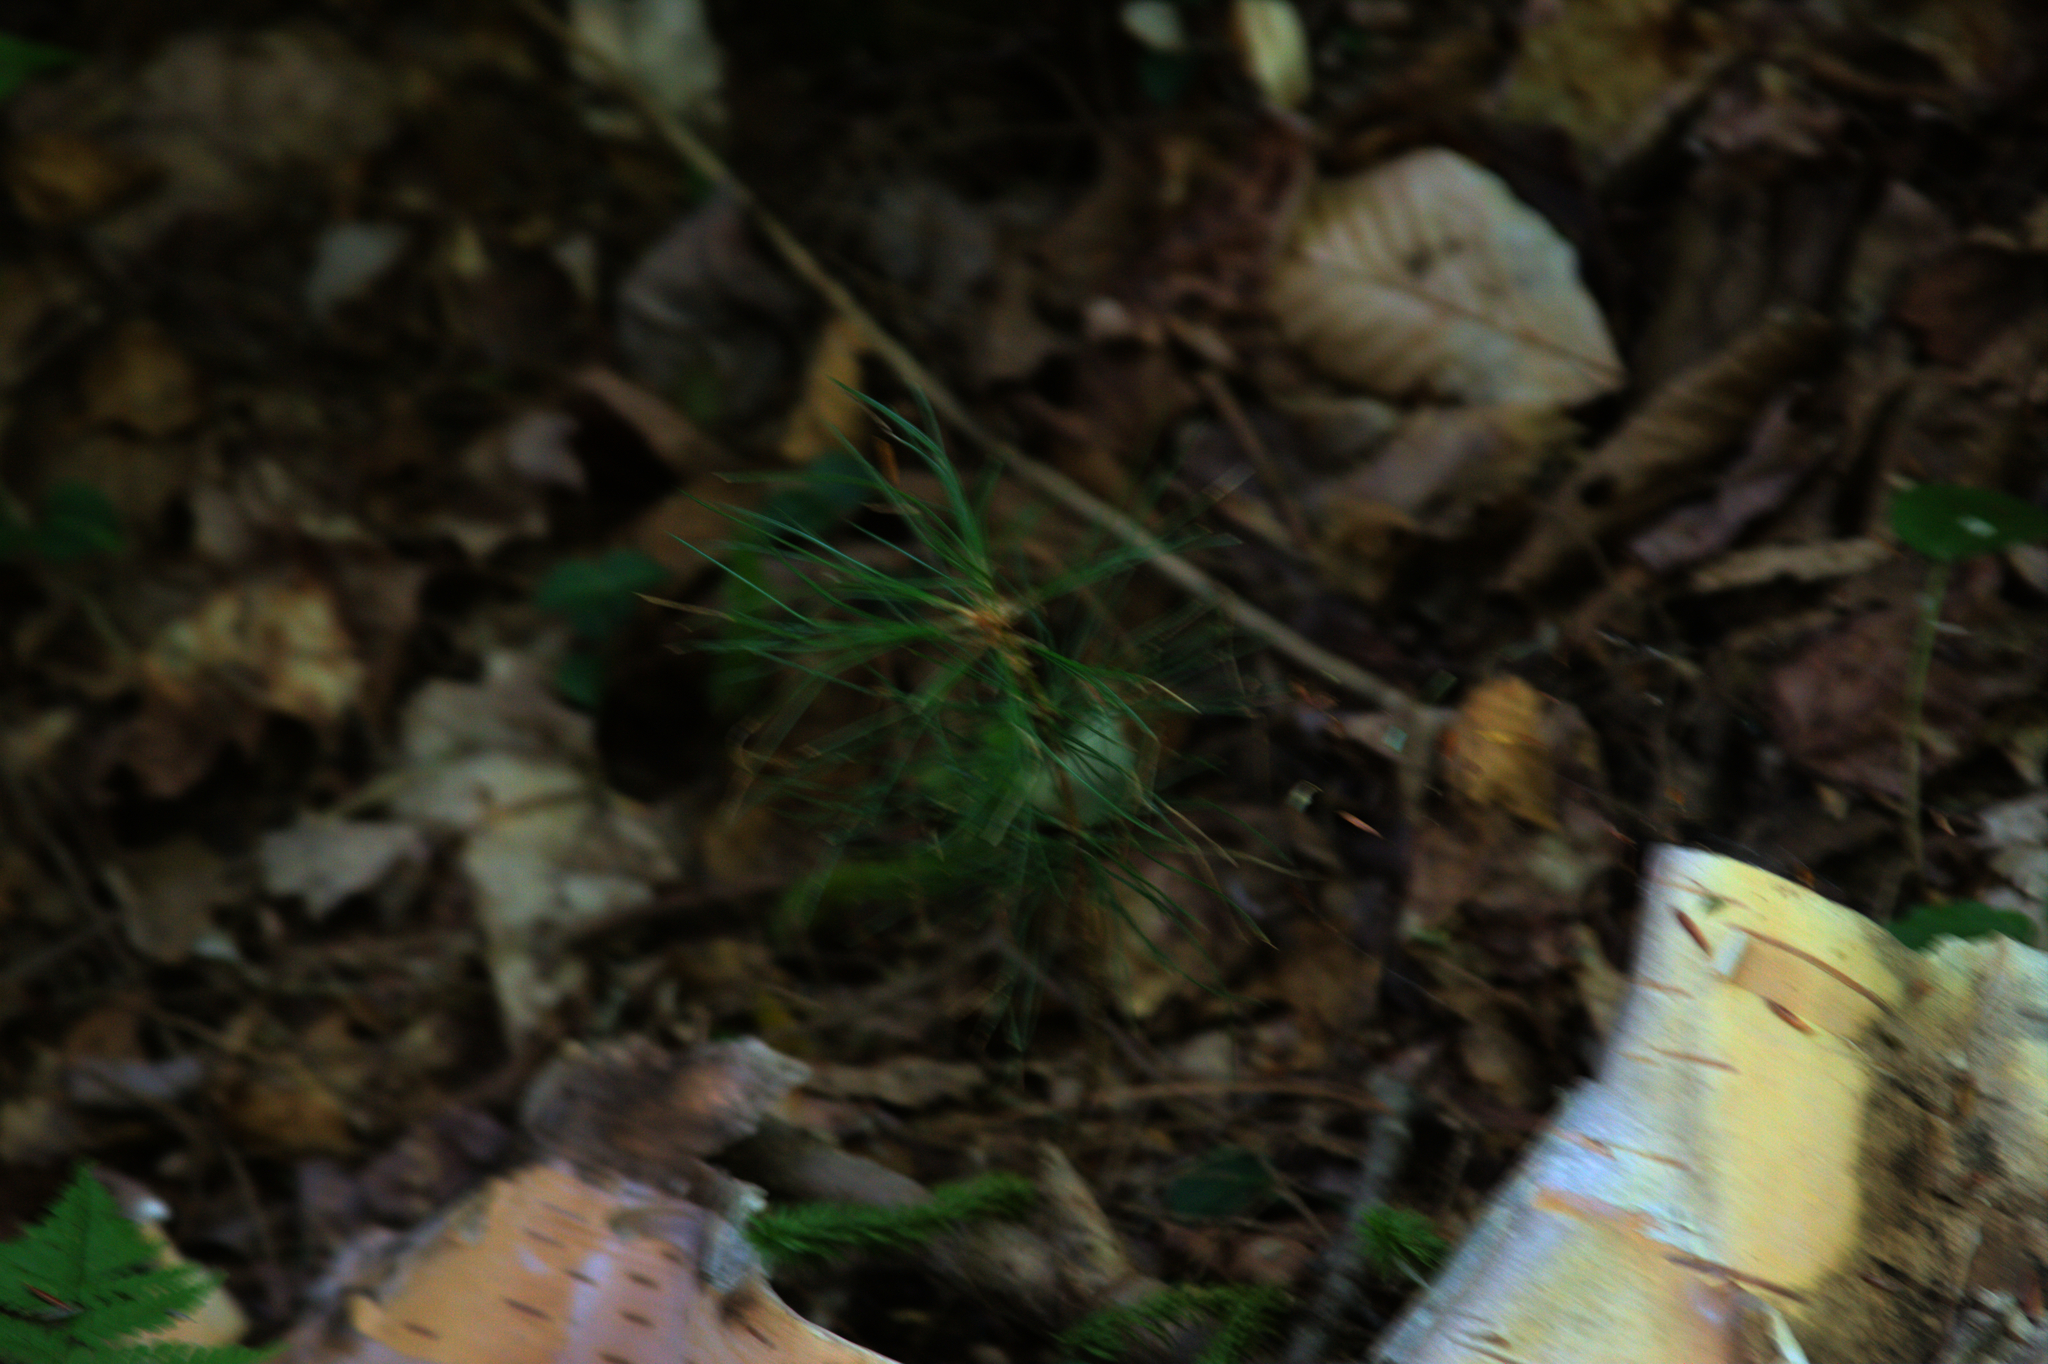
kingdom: Plantae
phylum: Tracheophyta
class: Pinopsida
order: Pinales
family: Pinaceae
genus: Pinus
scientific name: Pinus strobus
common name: Weymouth pine
